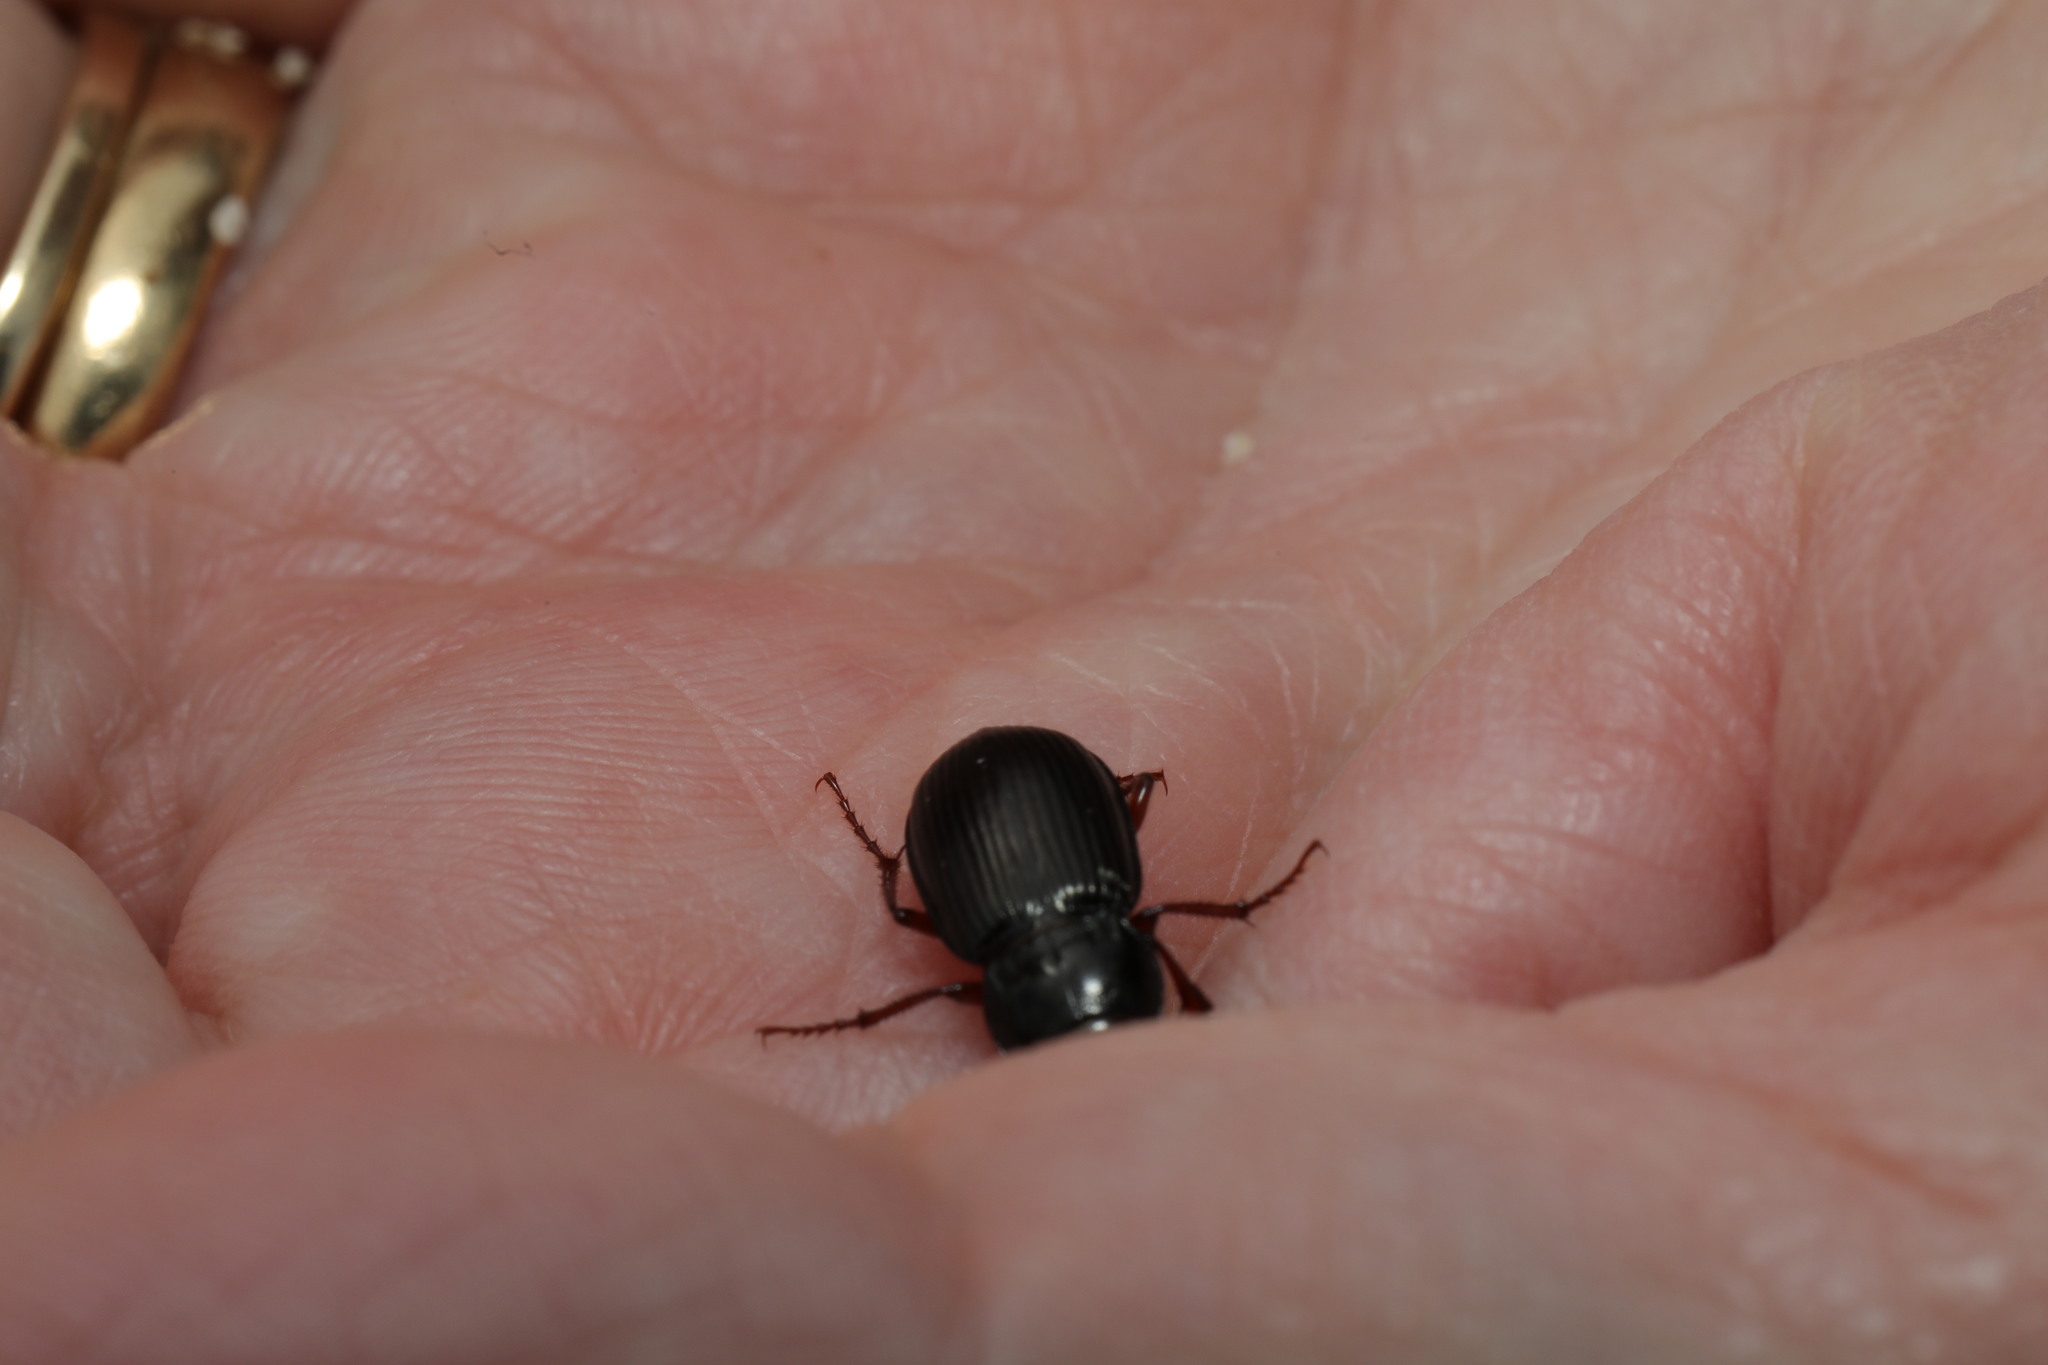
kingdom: Animalia
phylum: Arthropoda
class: Insecta
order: Coleoptera
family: Carabidae
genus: Amara
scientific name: Amara aulica
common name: Princely harp ground beetle
